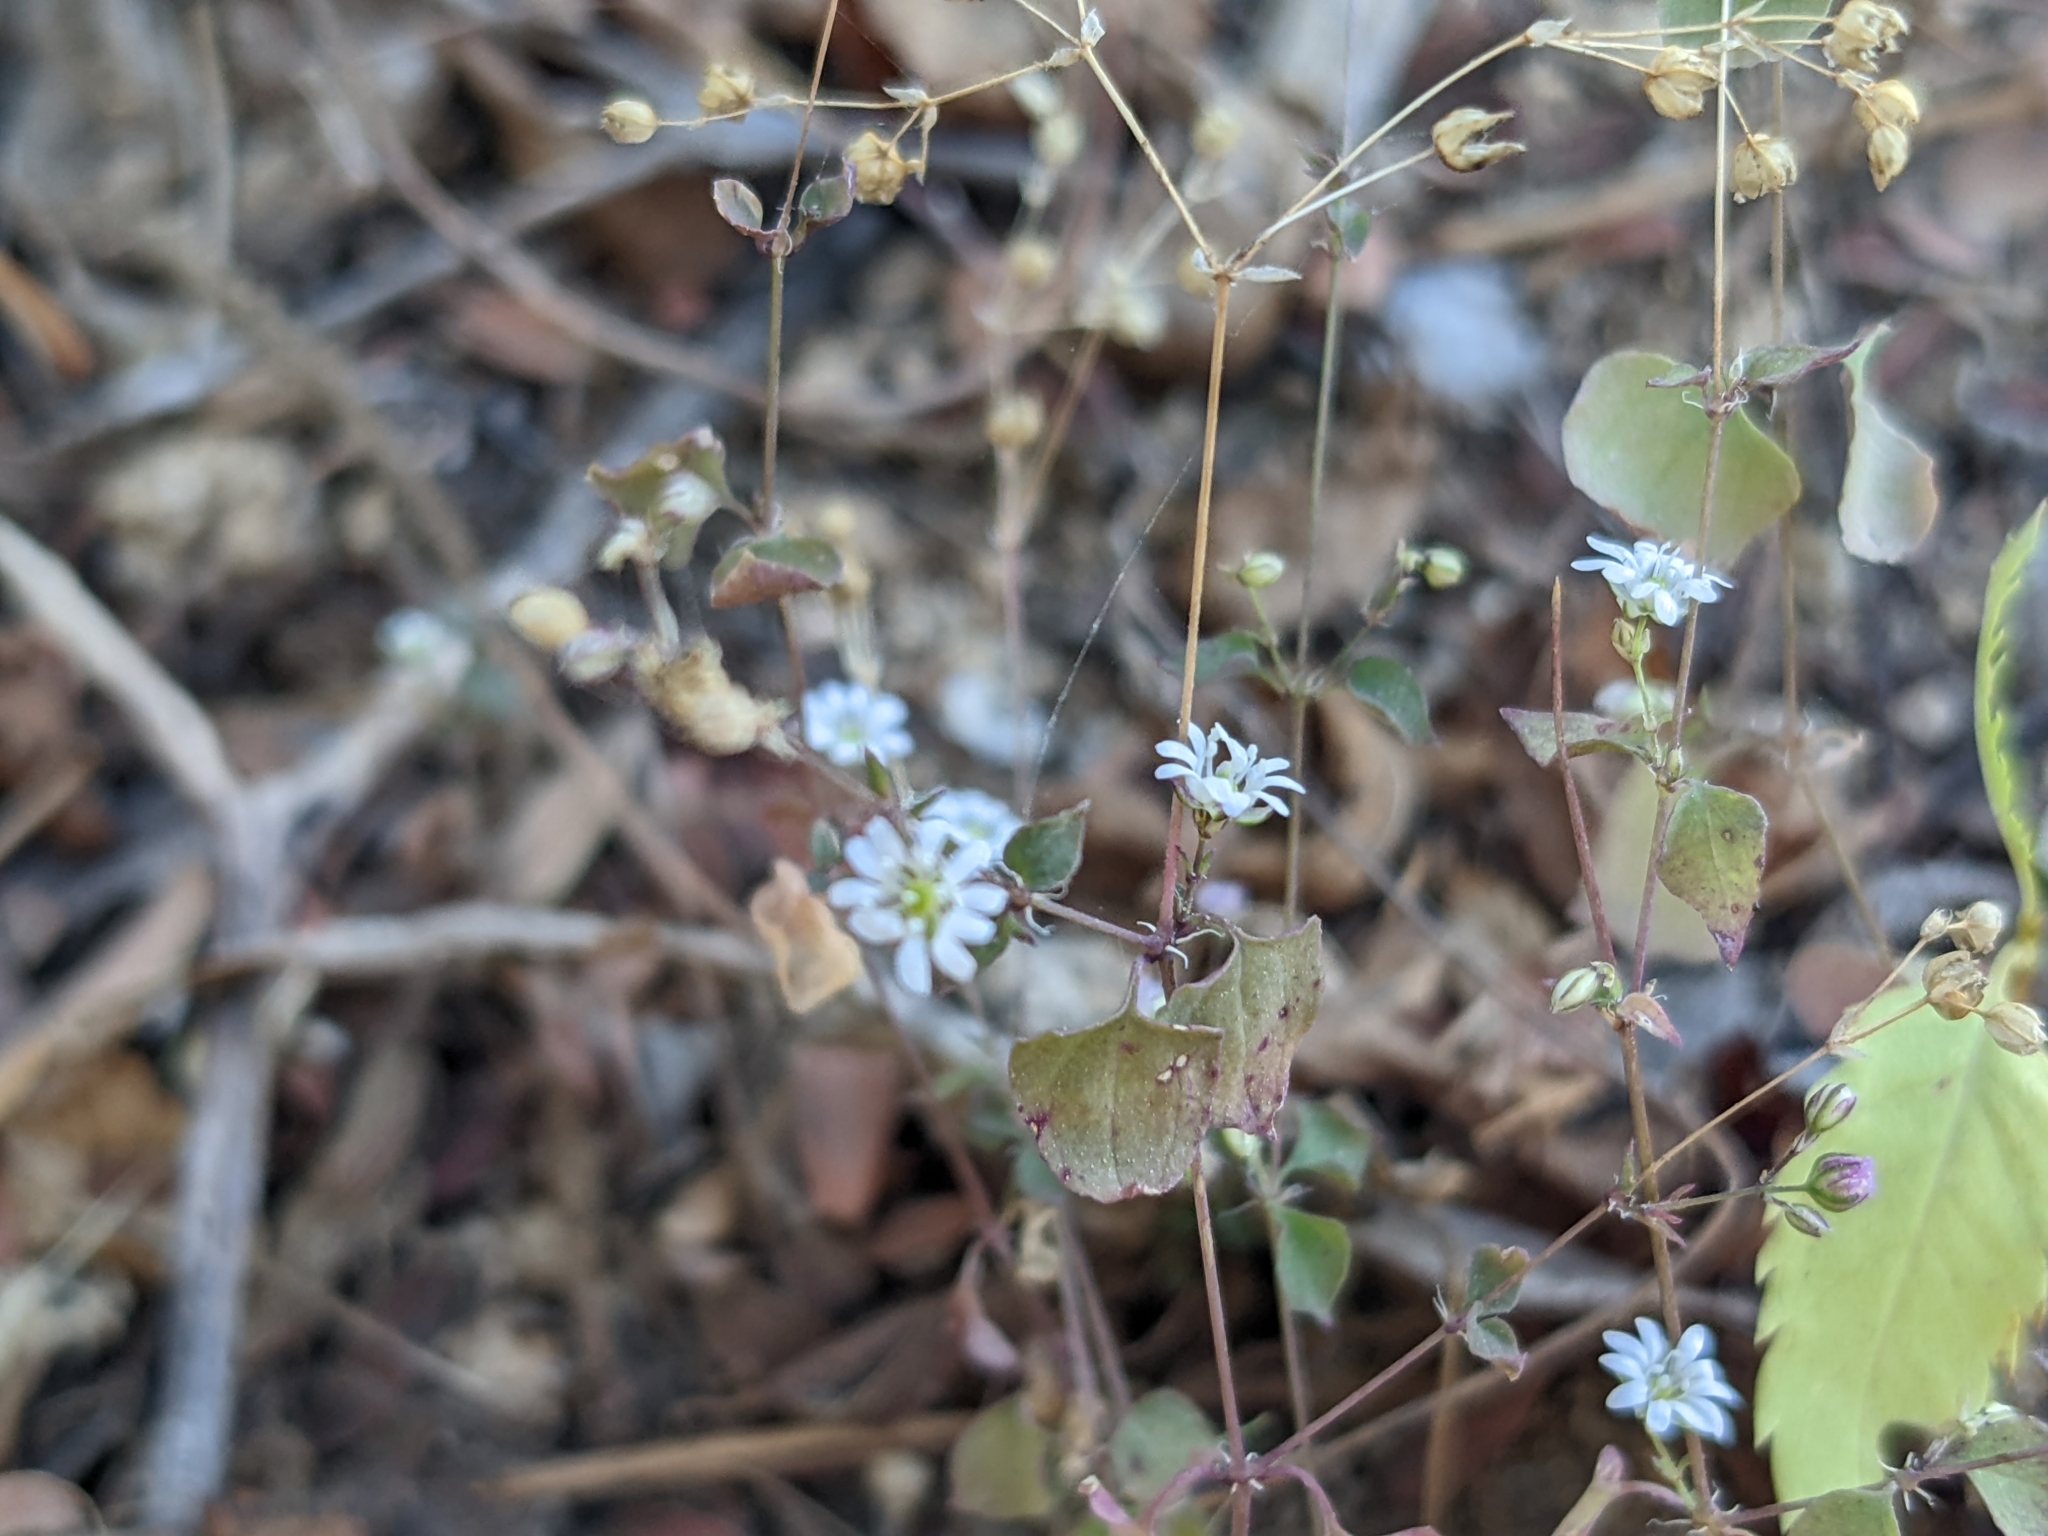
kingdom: Plantae
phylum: Tracheophyta
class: Magnoliopsida
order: Caryophyllales
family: Caryophyllaceae
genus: Drymaria
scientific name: Drymaria gracilis
